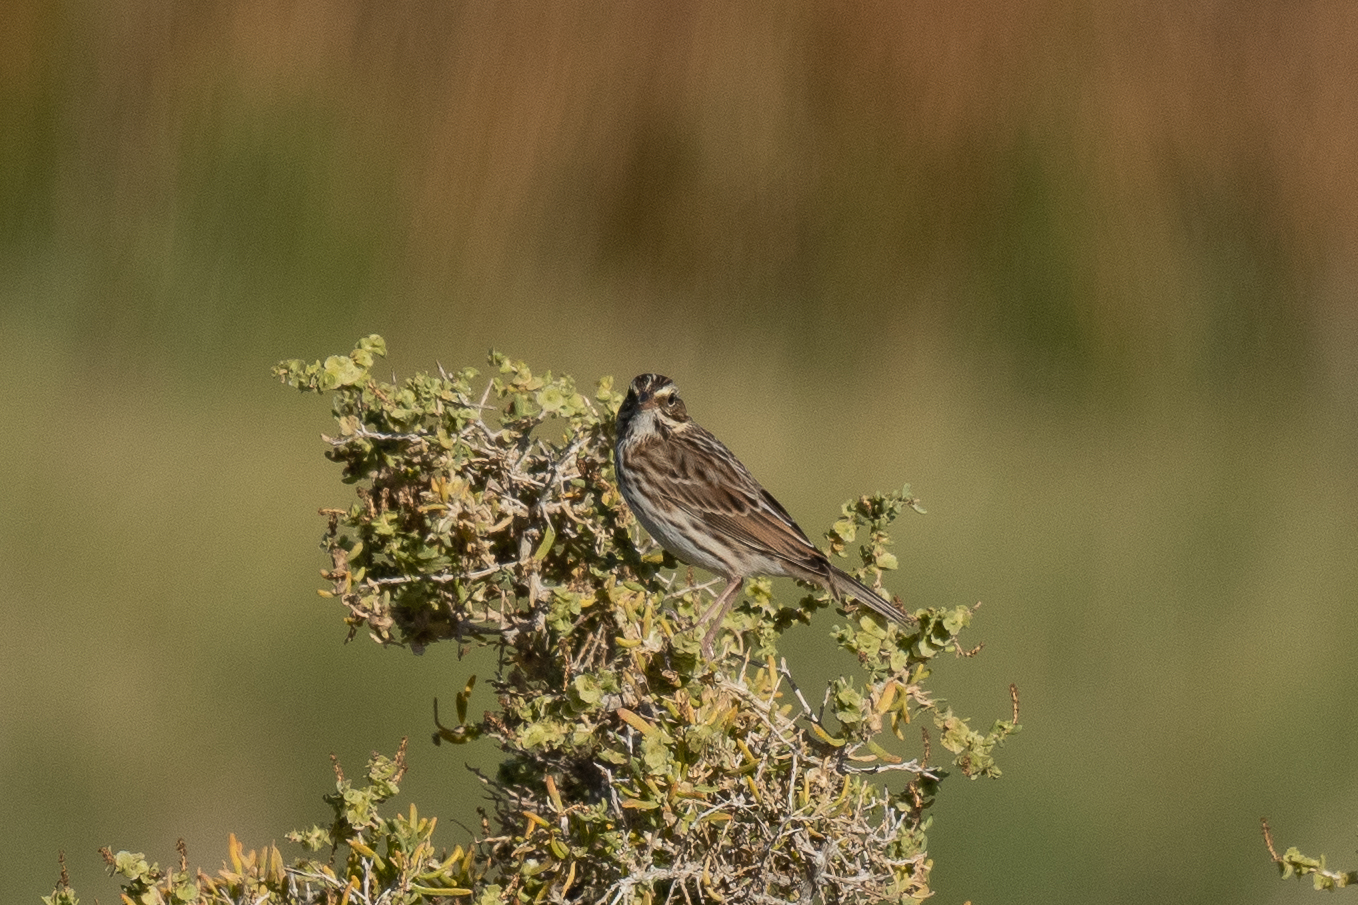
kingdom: Animalia
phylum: Chordata
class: Aves
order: Passeriformes
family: Passerellidae
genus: Passerculus
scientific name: Passerculus sandwichensis
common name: Savannah sparrow
